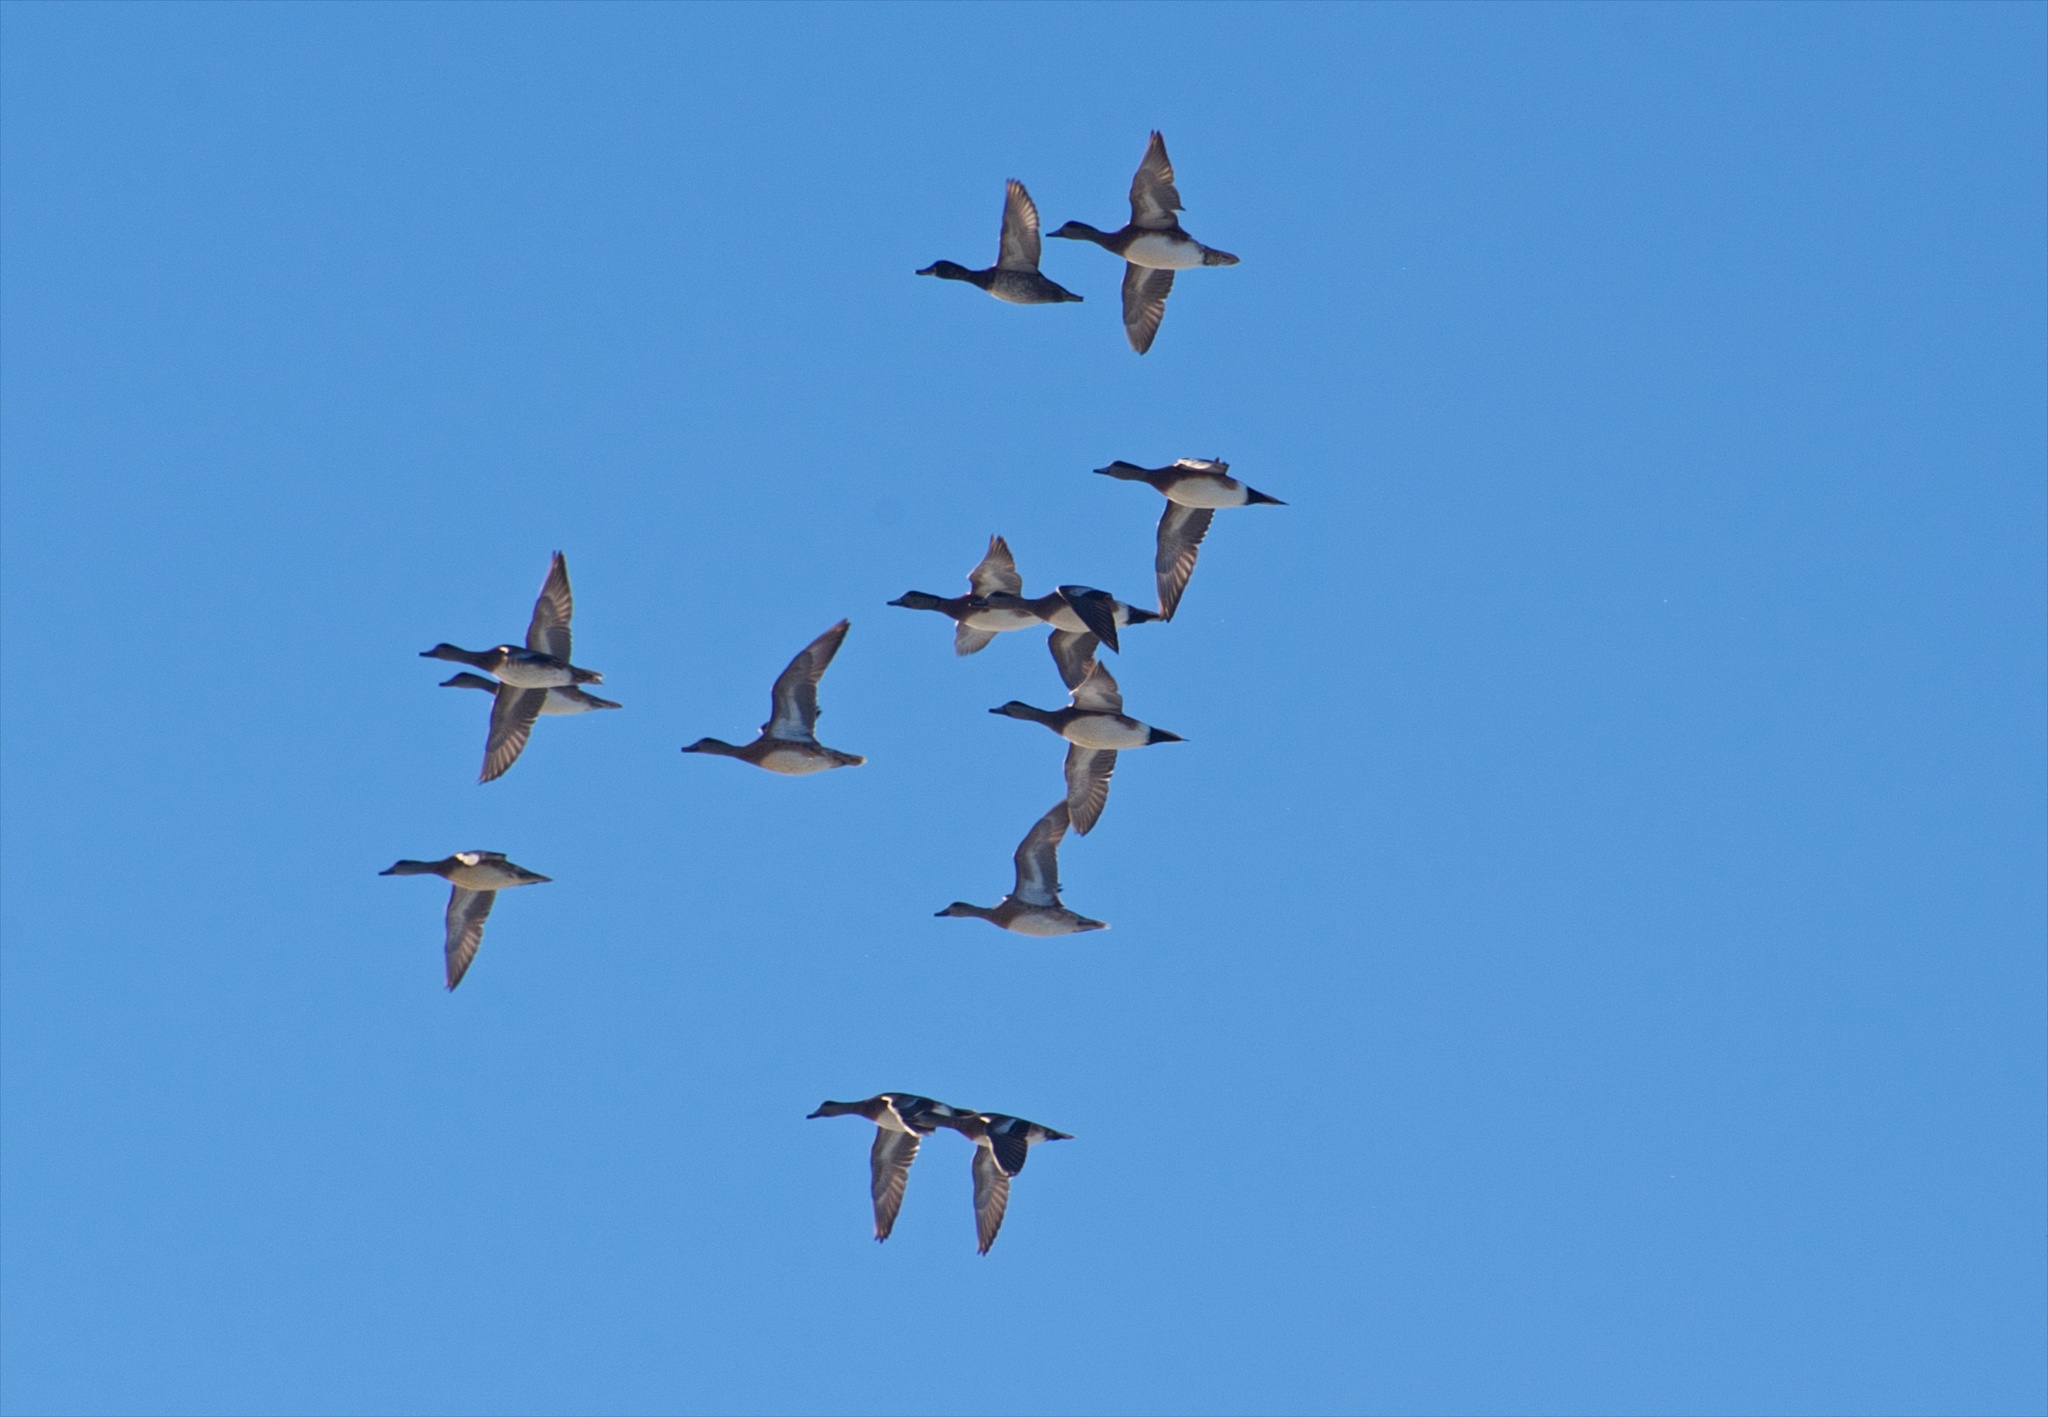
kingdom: Animalia
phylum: Chordata
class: Aves
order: Anseriformes
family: Anatidae
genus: Mareca
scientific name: Mareca americana
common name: American wigeon
